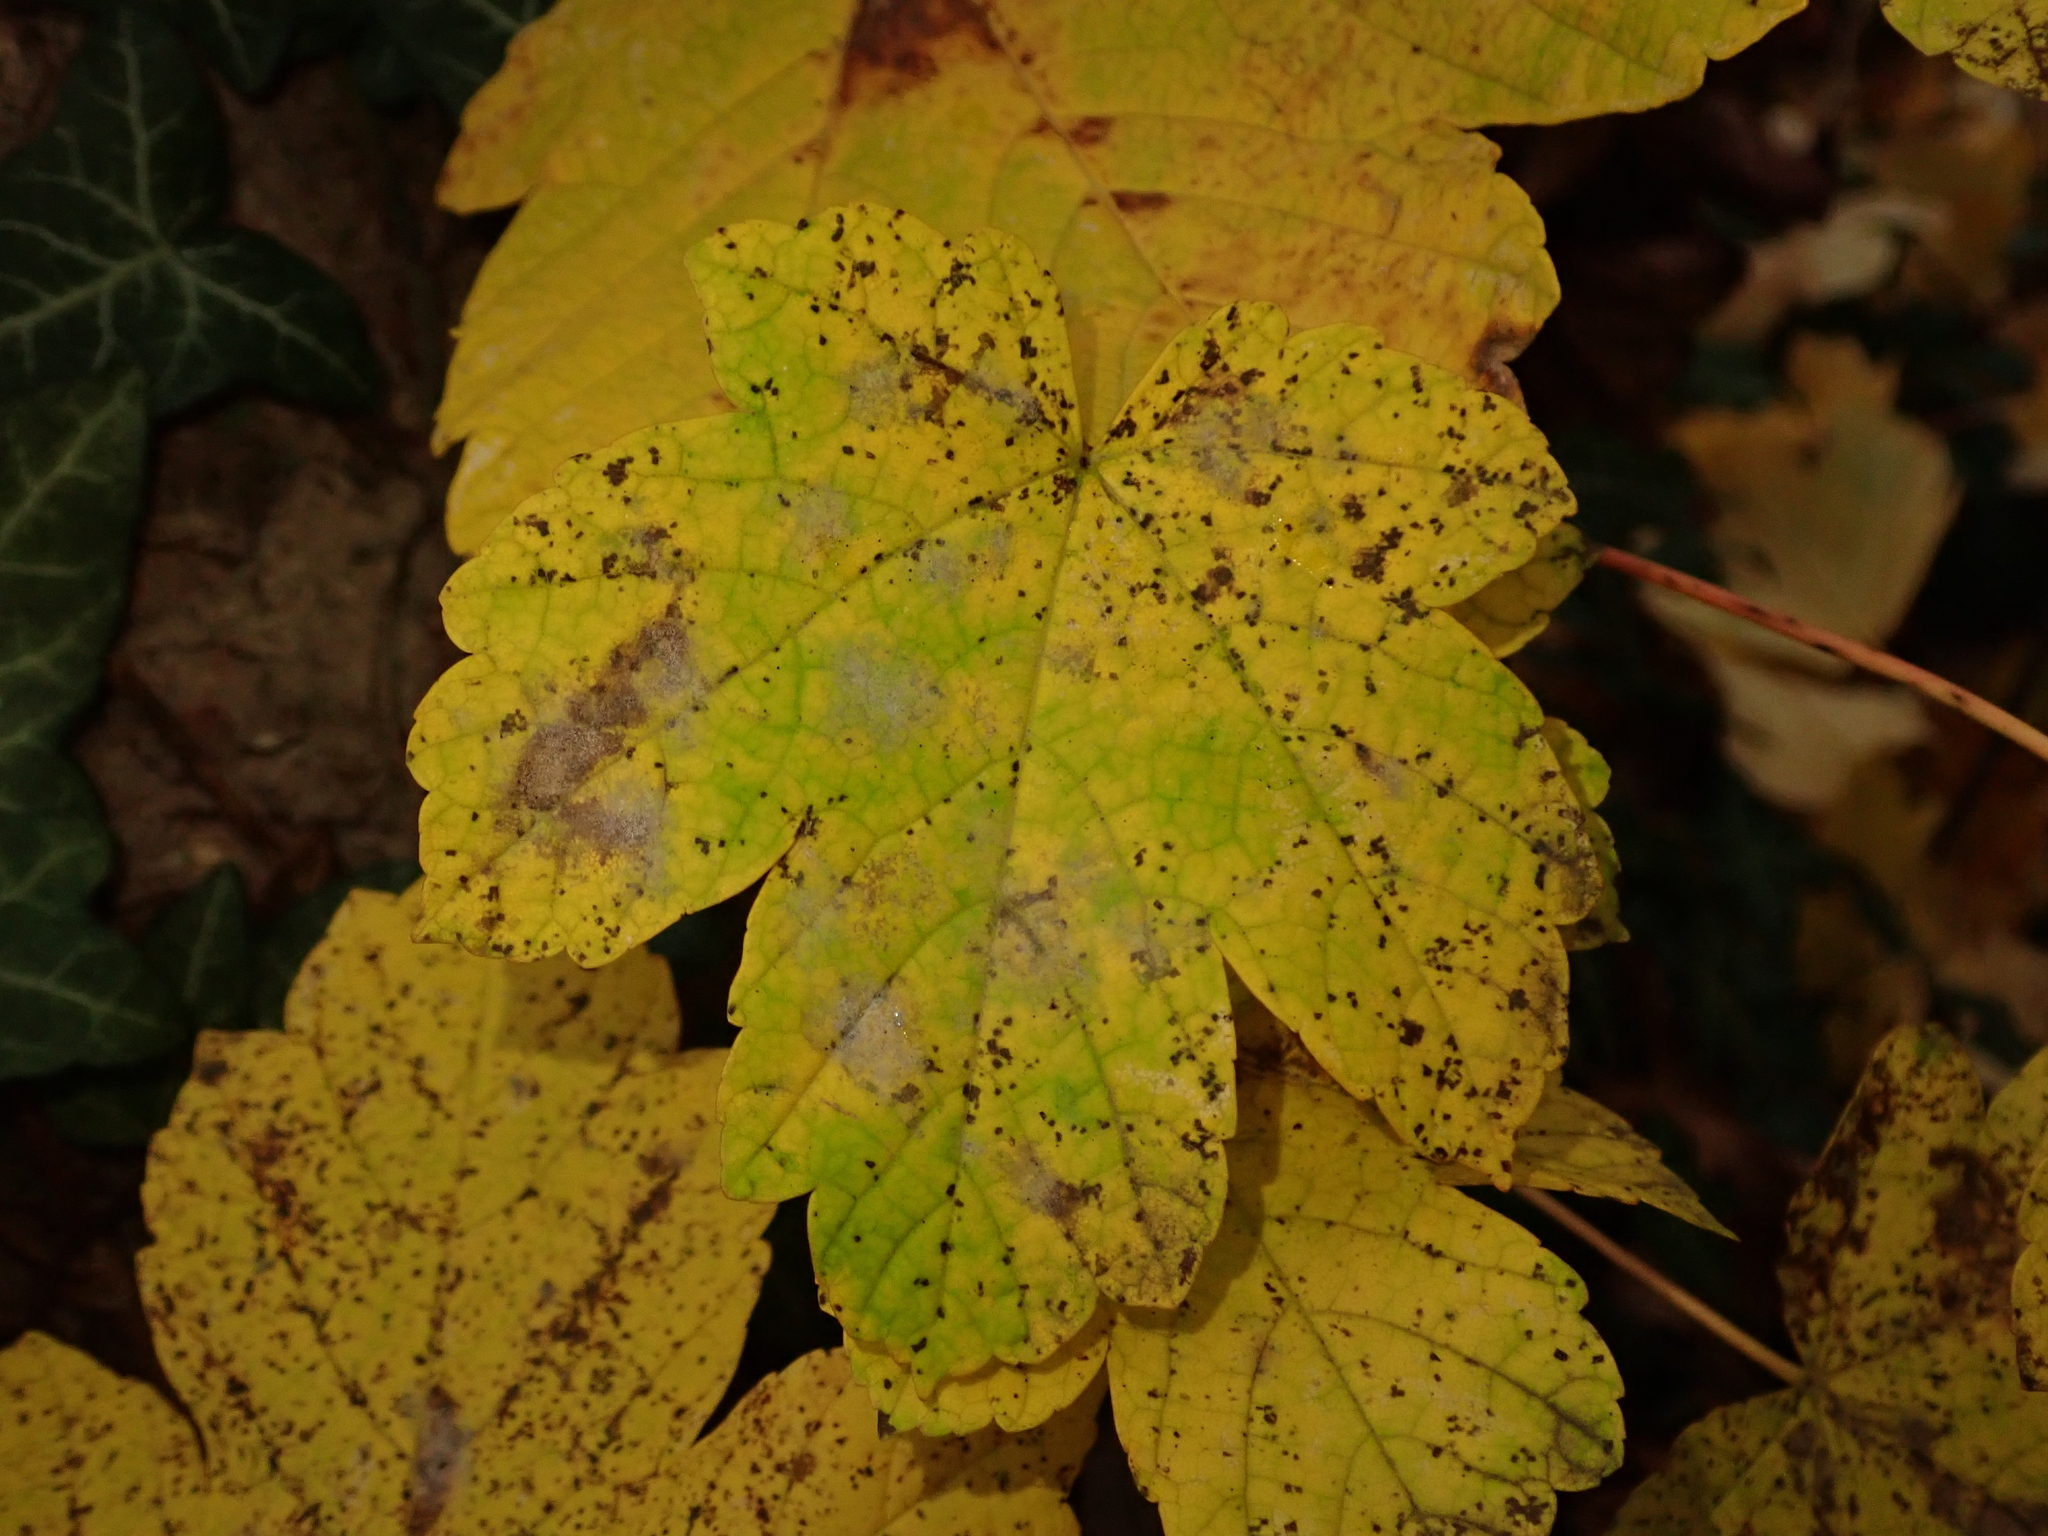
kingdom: Plantae
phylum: Tracheophyta
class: Magnoliopsida
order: Sapindales
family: Sapindaceae
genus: Acer
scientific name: Acer pseudoplatanus
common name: Sycamore
